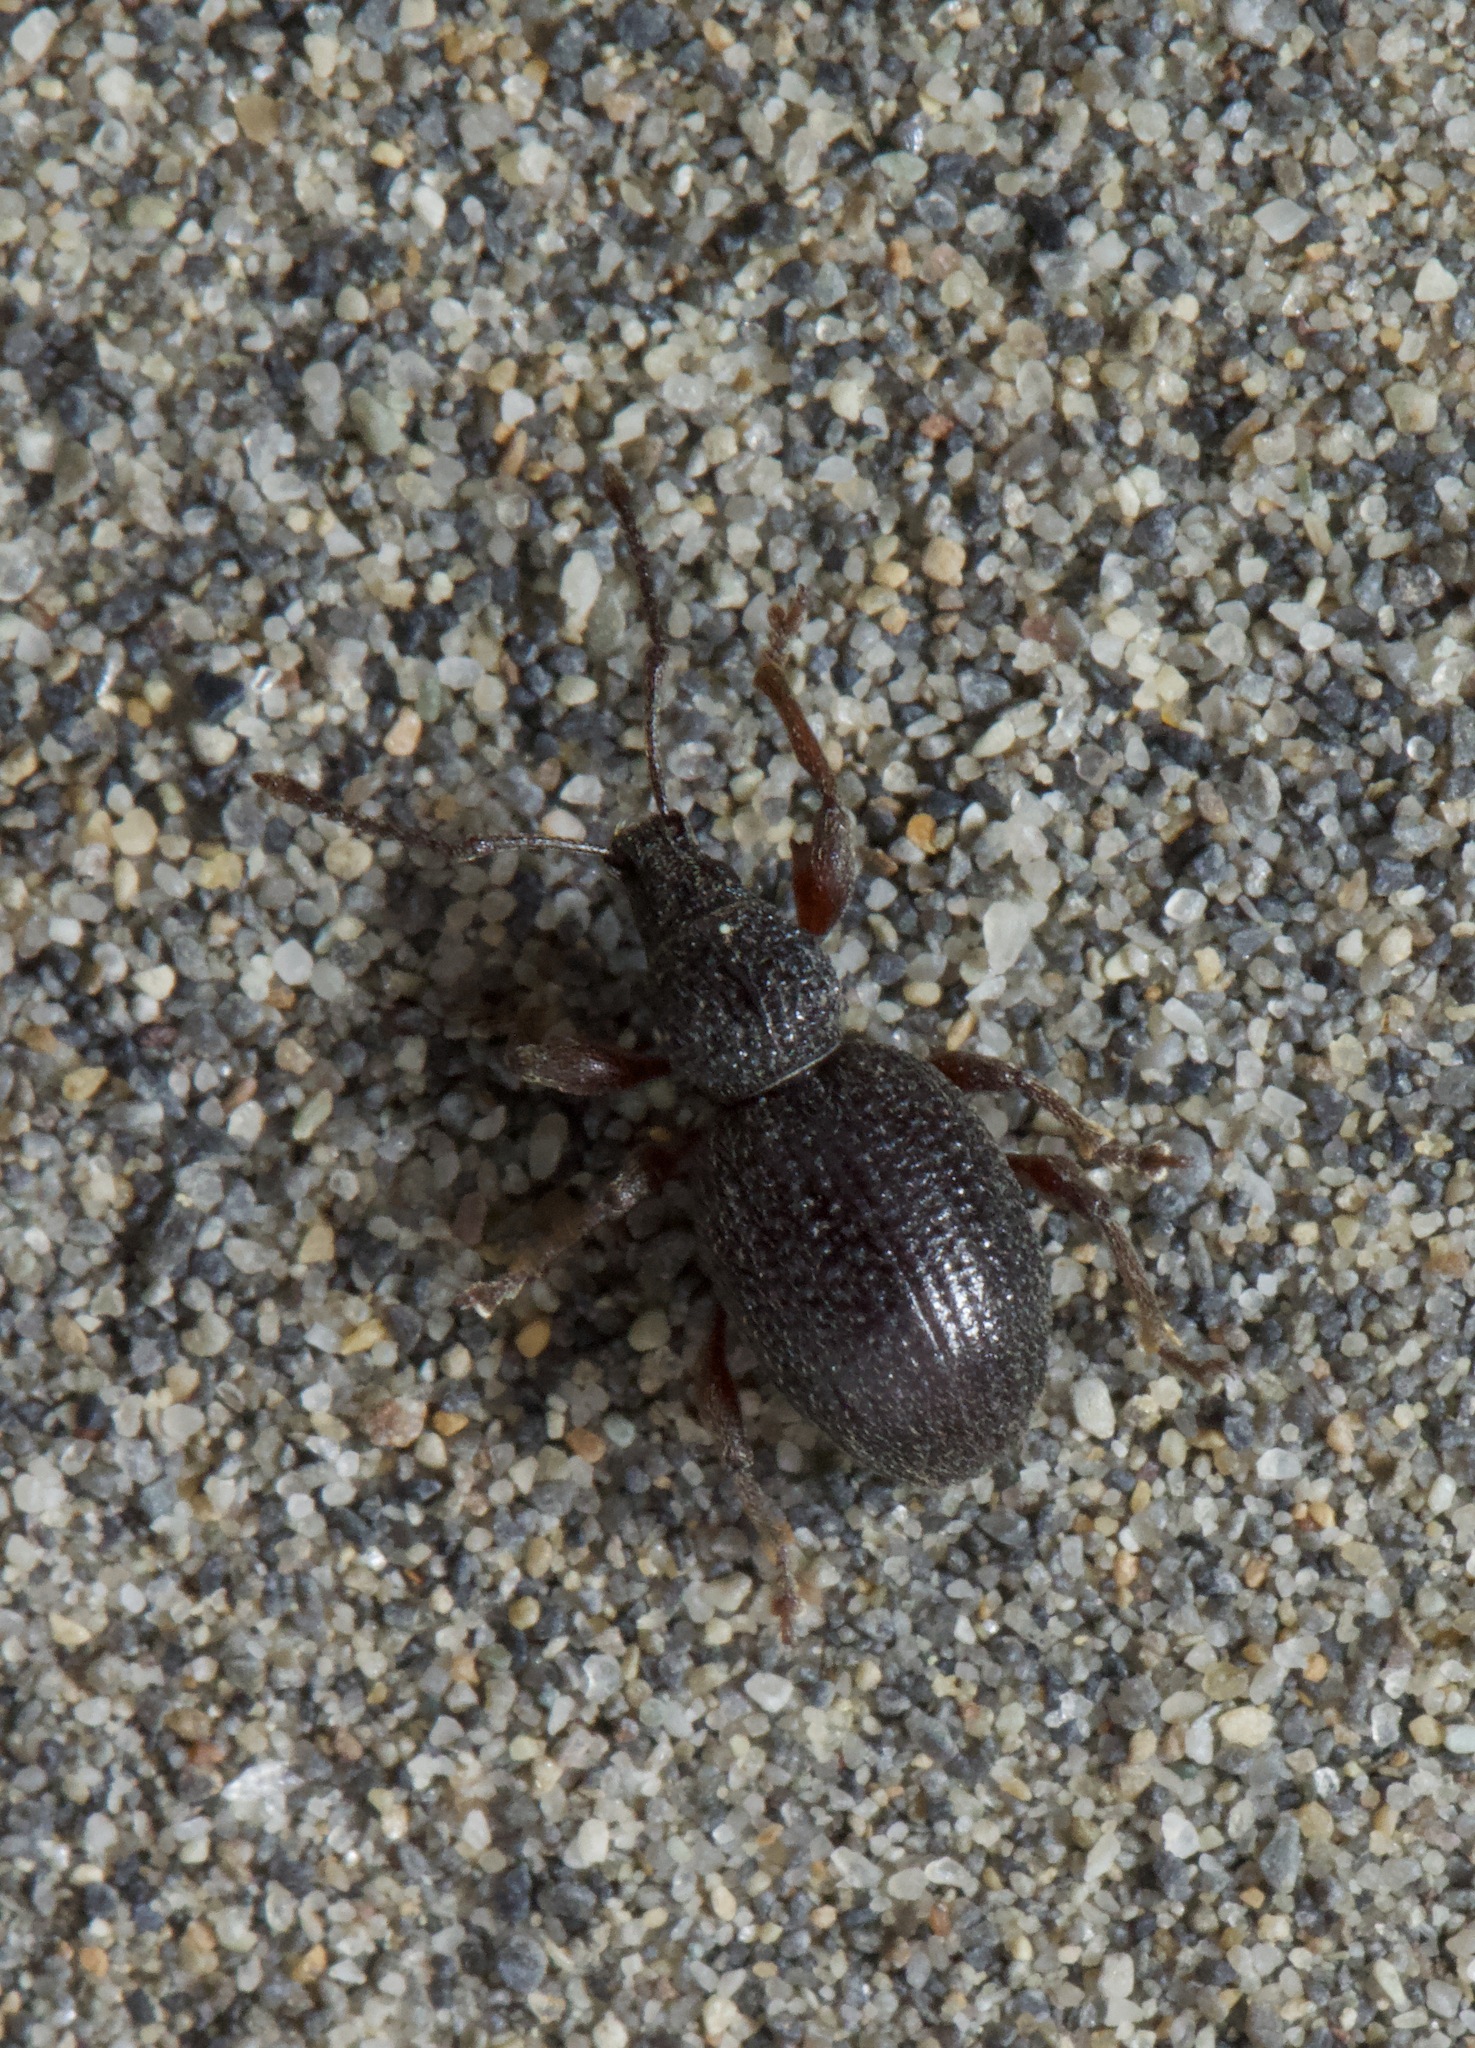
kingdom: Animalia
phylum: Arthropoda
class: Insecta
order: Coleoptera
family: Curculionidae
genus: Otiorhynchus
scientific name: Otiorhynchus ovatus
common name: Strawberry root weevil
